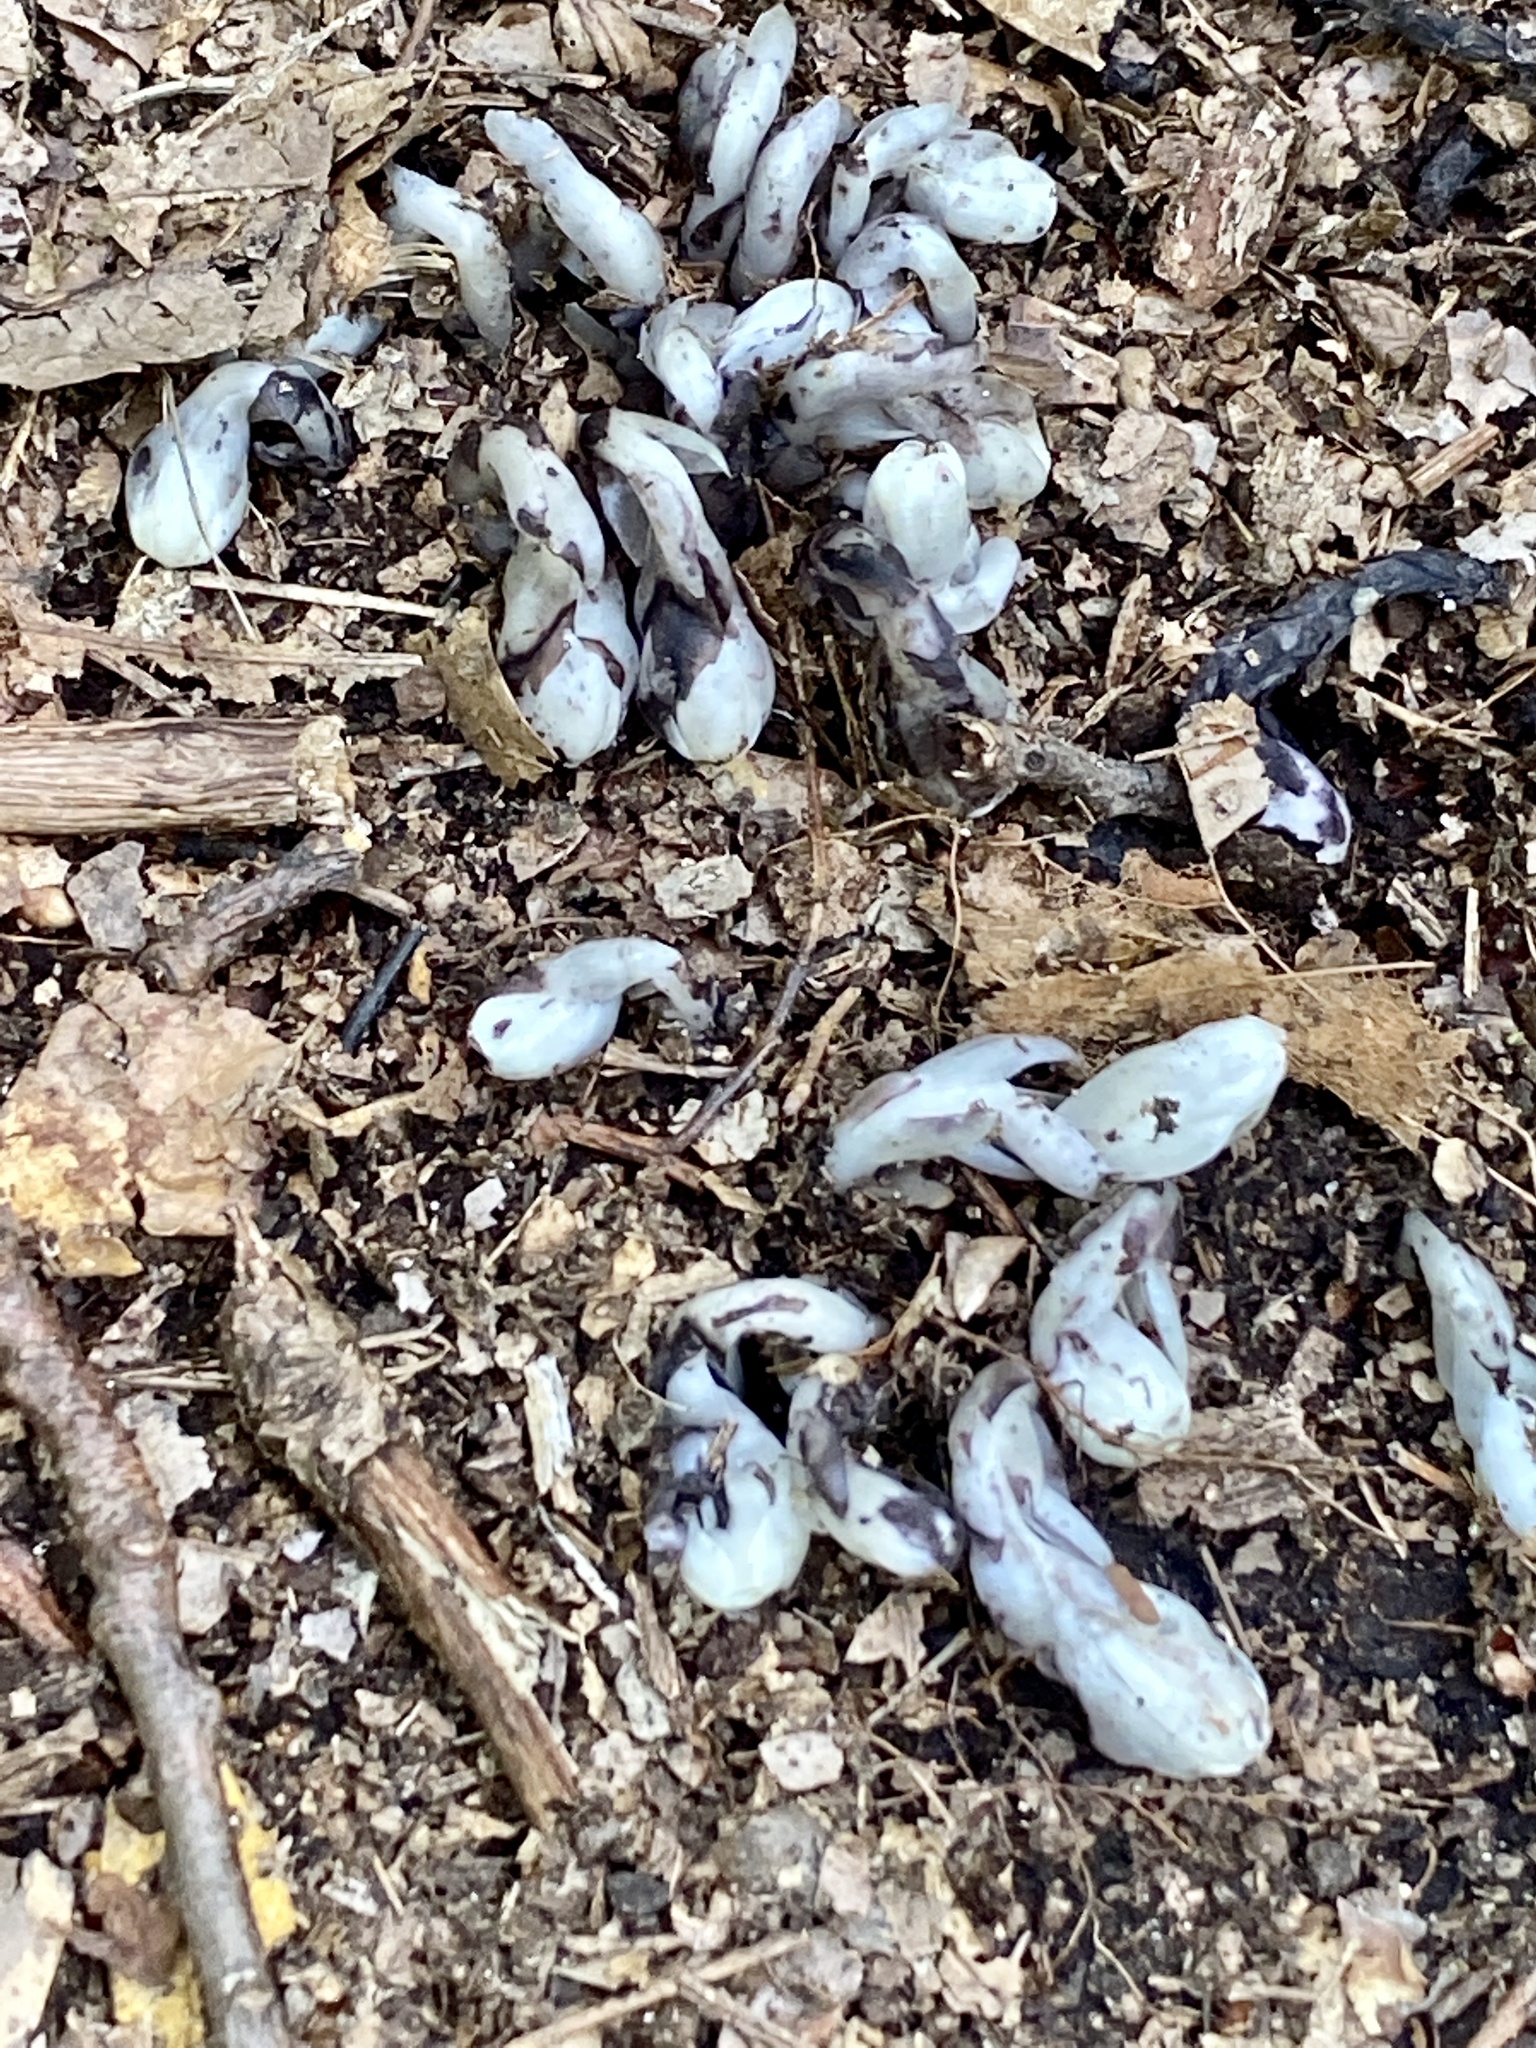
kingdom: Plantae
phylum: Tracheophyta
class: Magnoliopsida
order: Ericales
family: Ericaceae
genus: Monotropa
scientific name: Monotropa uniflora
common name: Convulsion root
